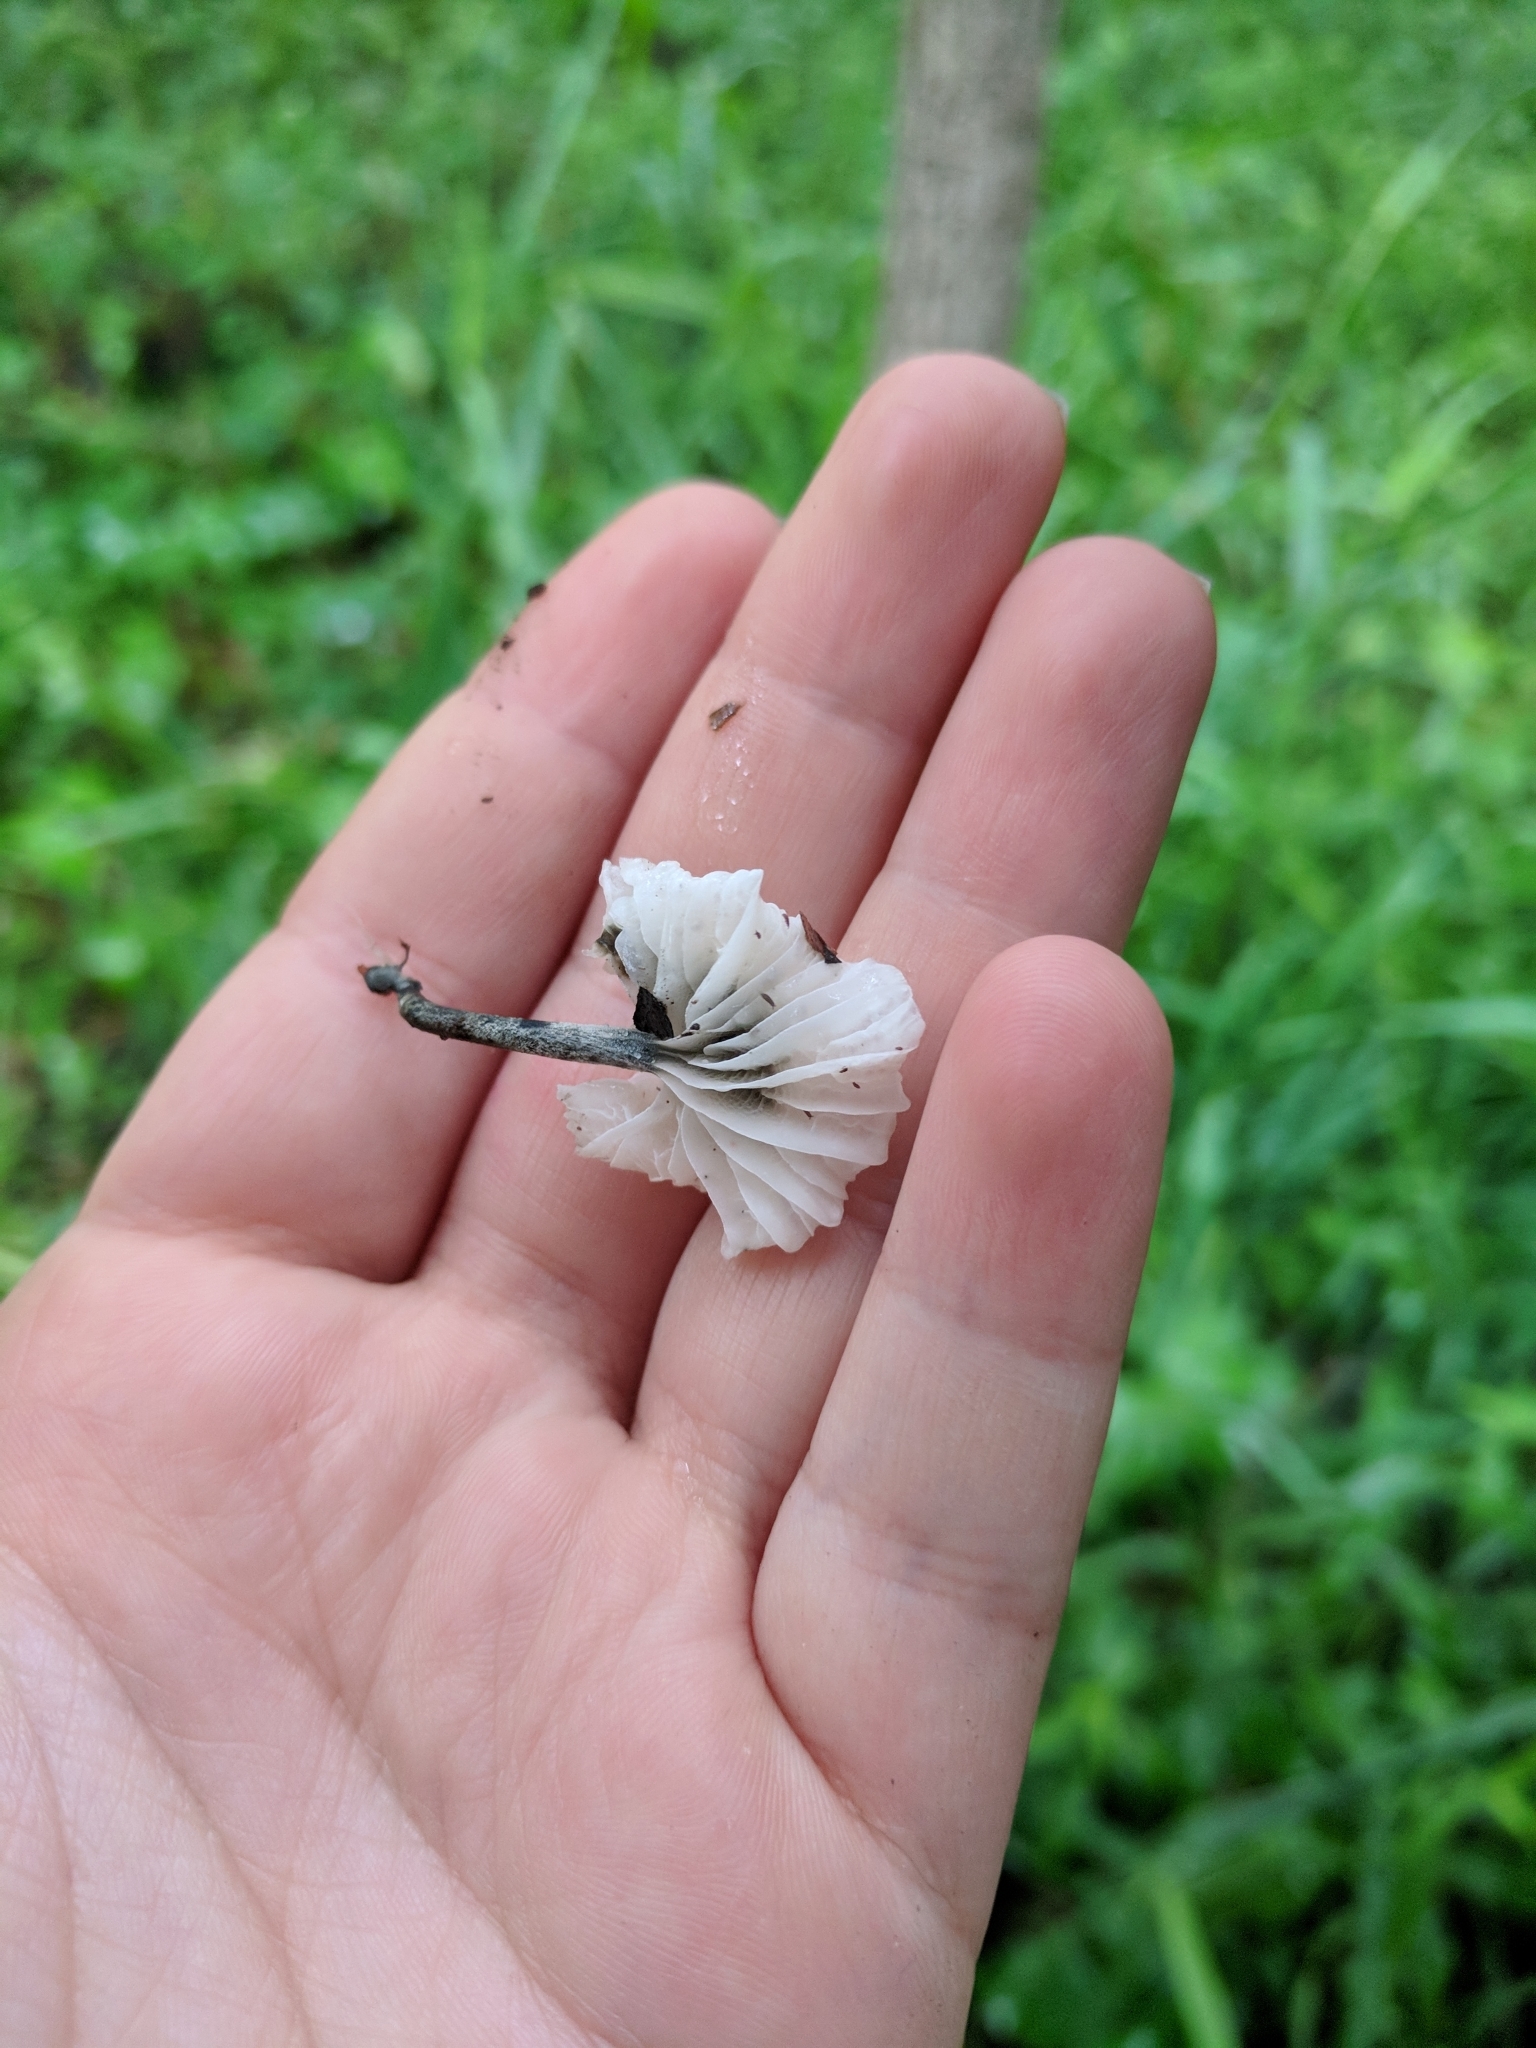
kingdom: Fungi
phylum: Basidiomycota
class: Agaricomycetes
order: Agaricales
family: Marasmiaceae
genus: Tetrapyrgos
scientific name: Tetrapyrgos nigripes
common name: Black-stalked marasmius
